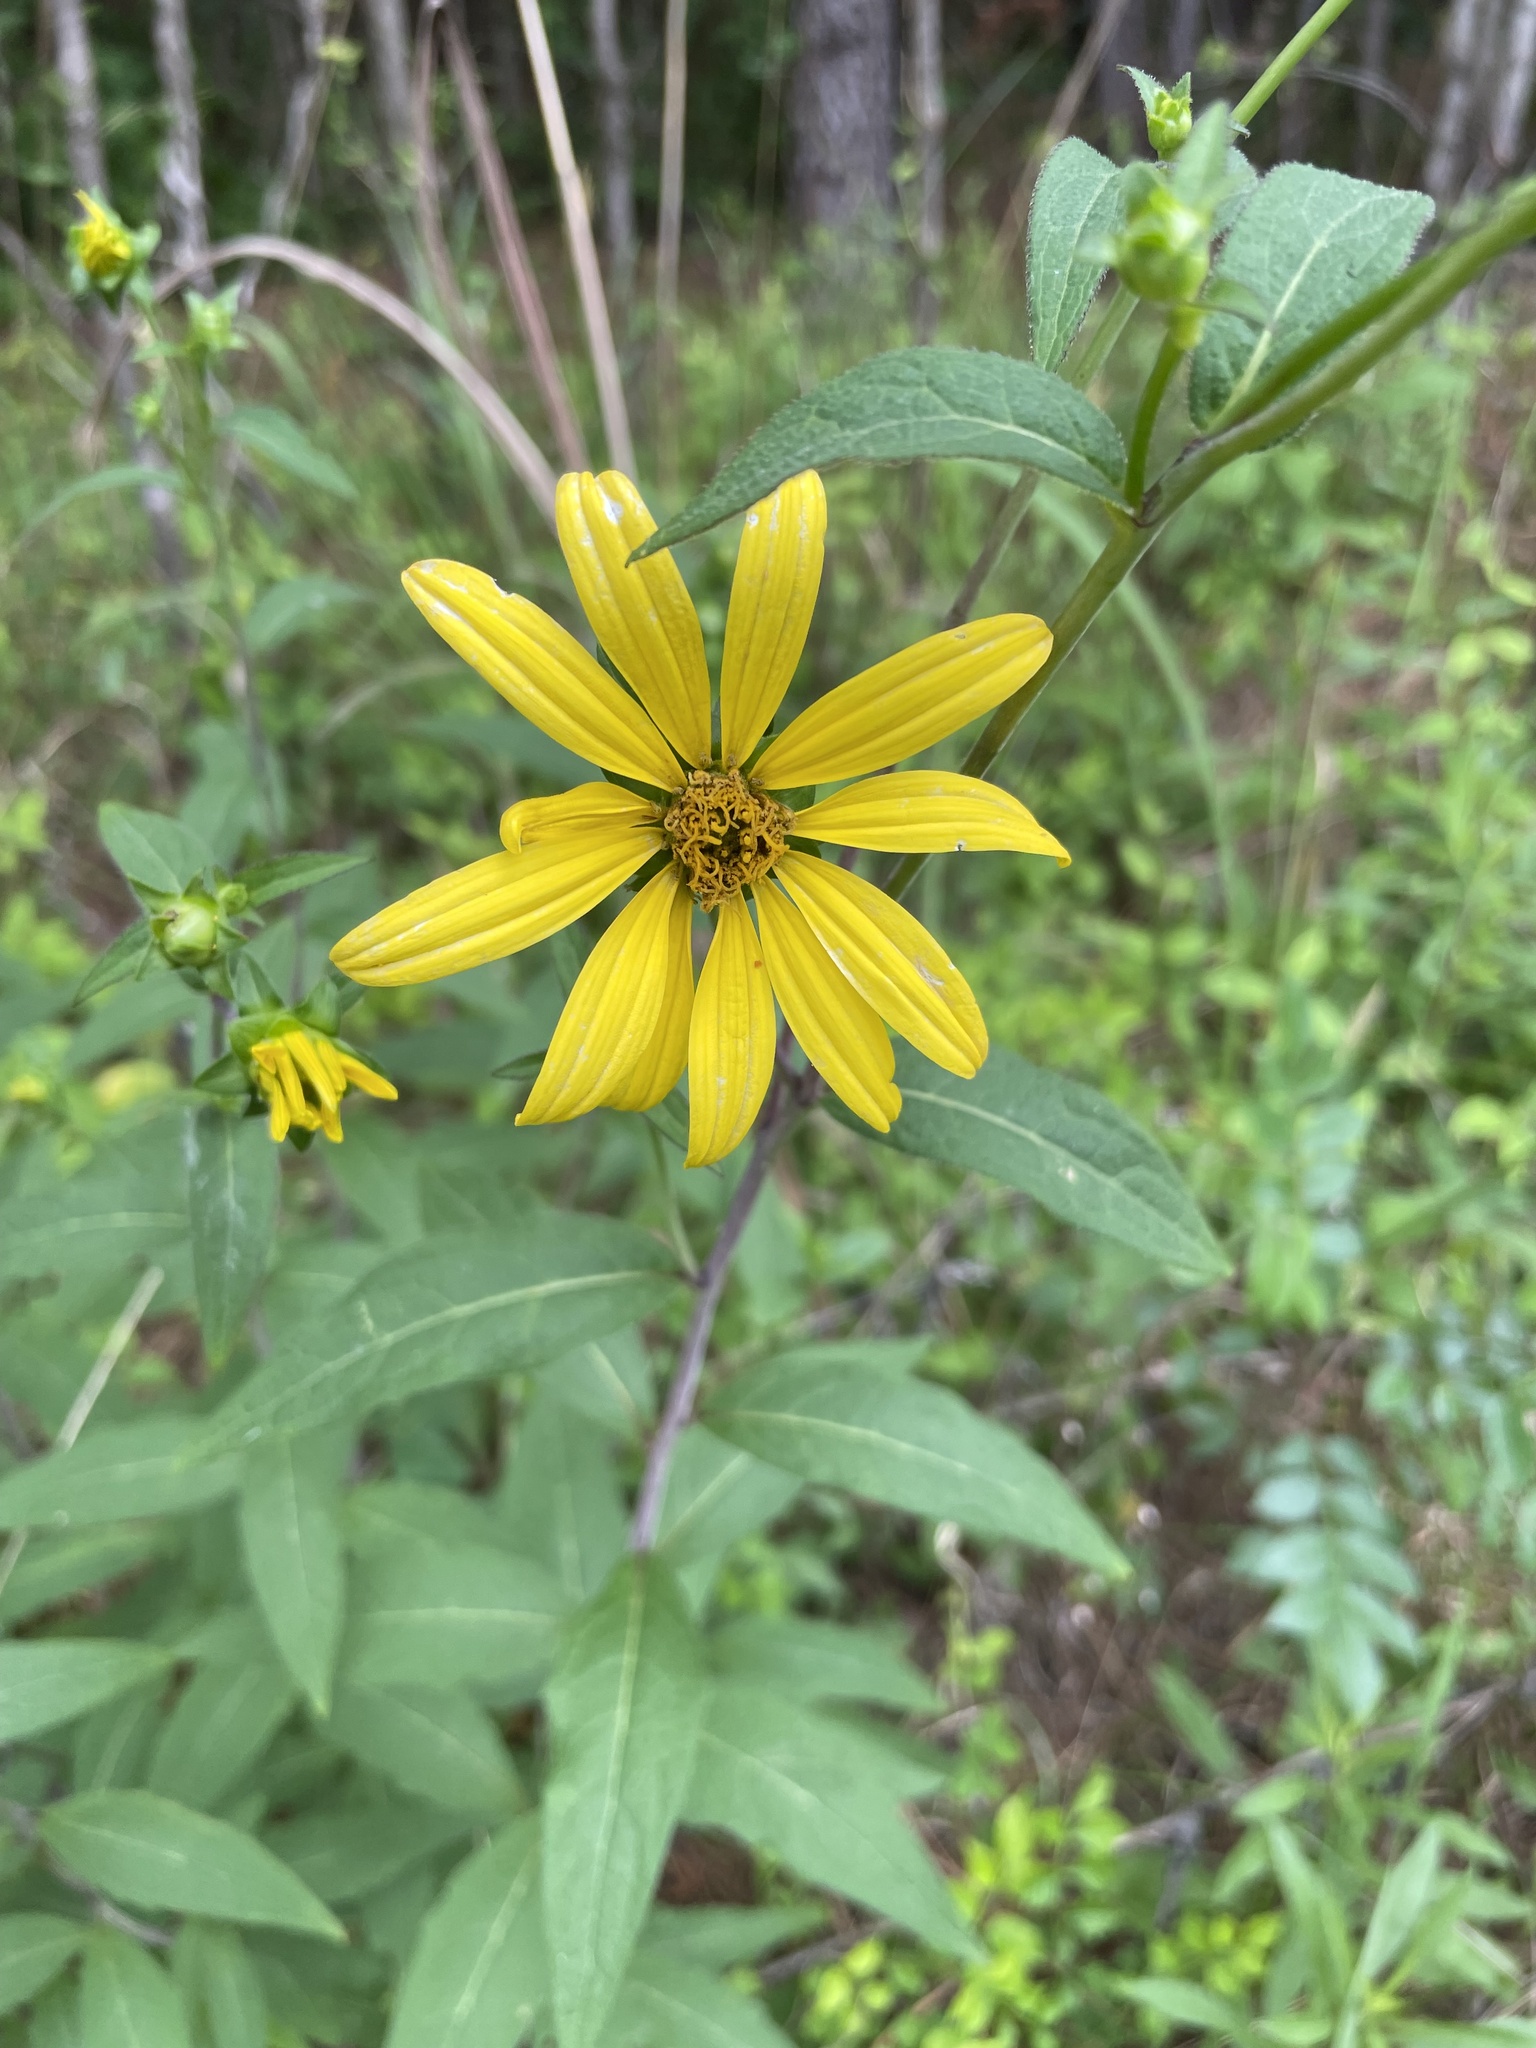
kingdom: Plantae
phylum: Tracheophyta
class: Magnoliopsida
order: Asterales
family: Asteraceae
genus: Silphium
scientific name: Silphium asteriscus
